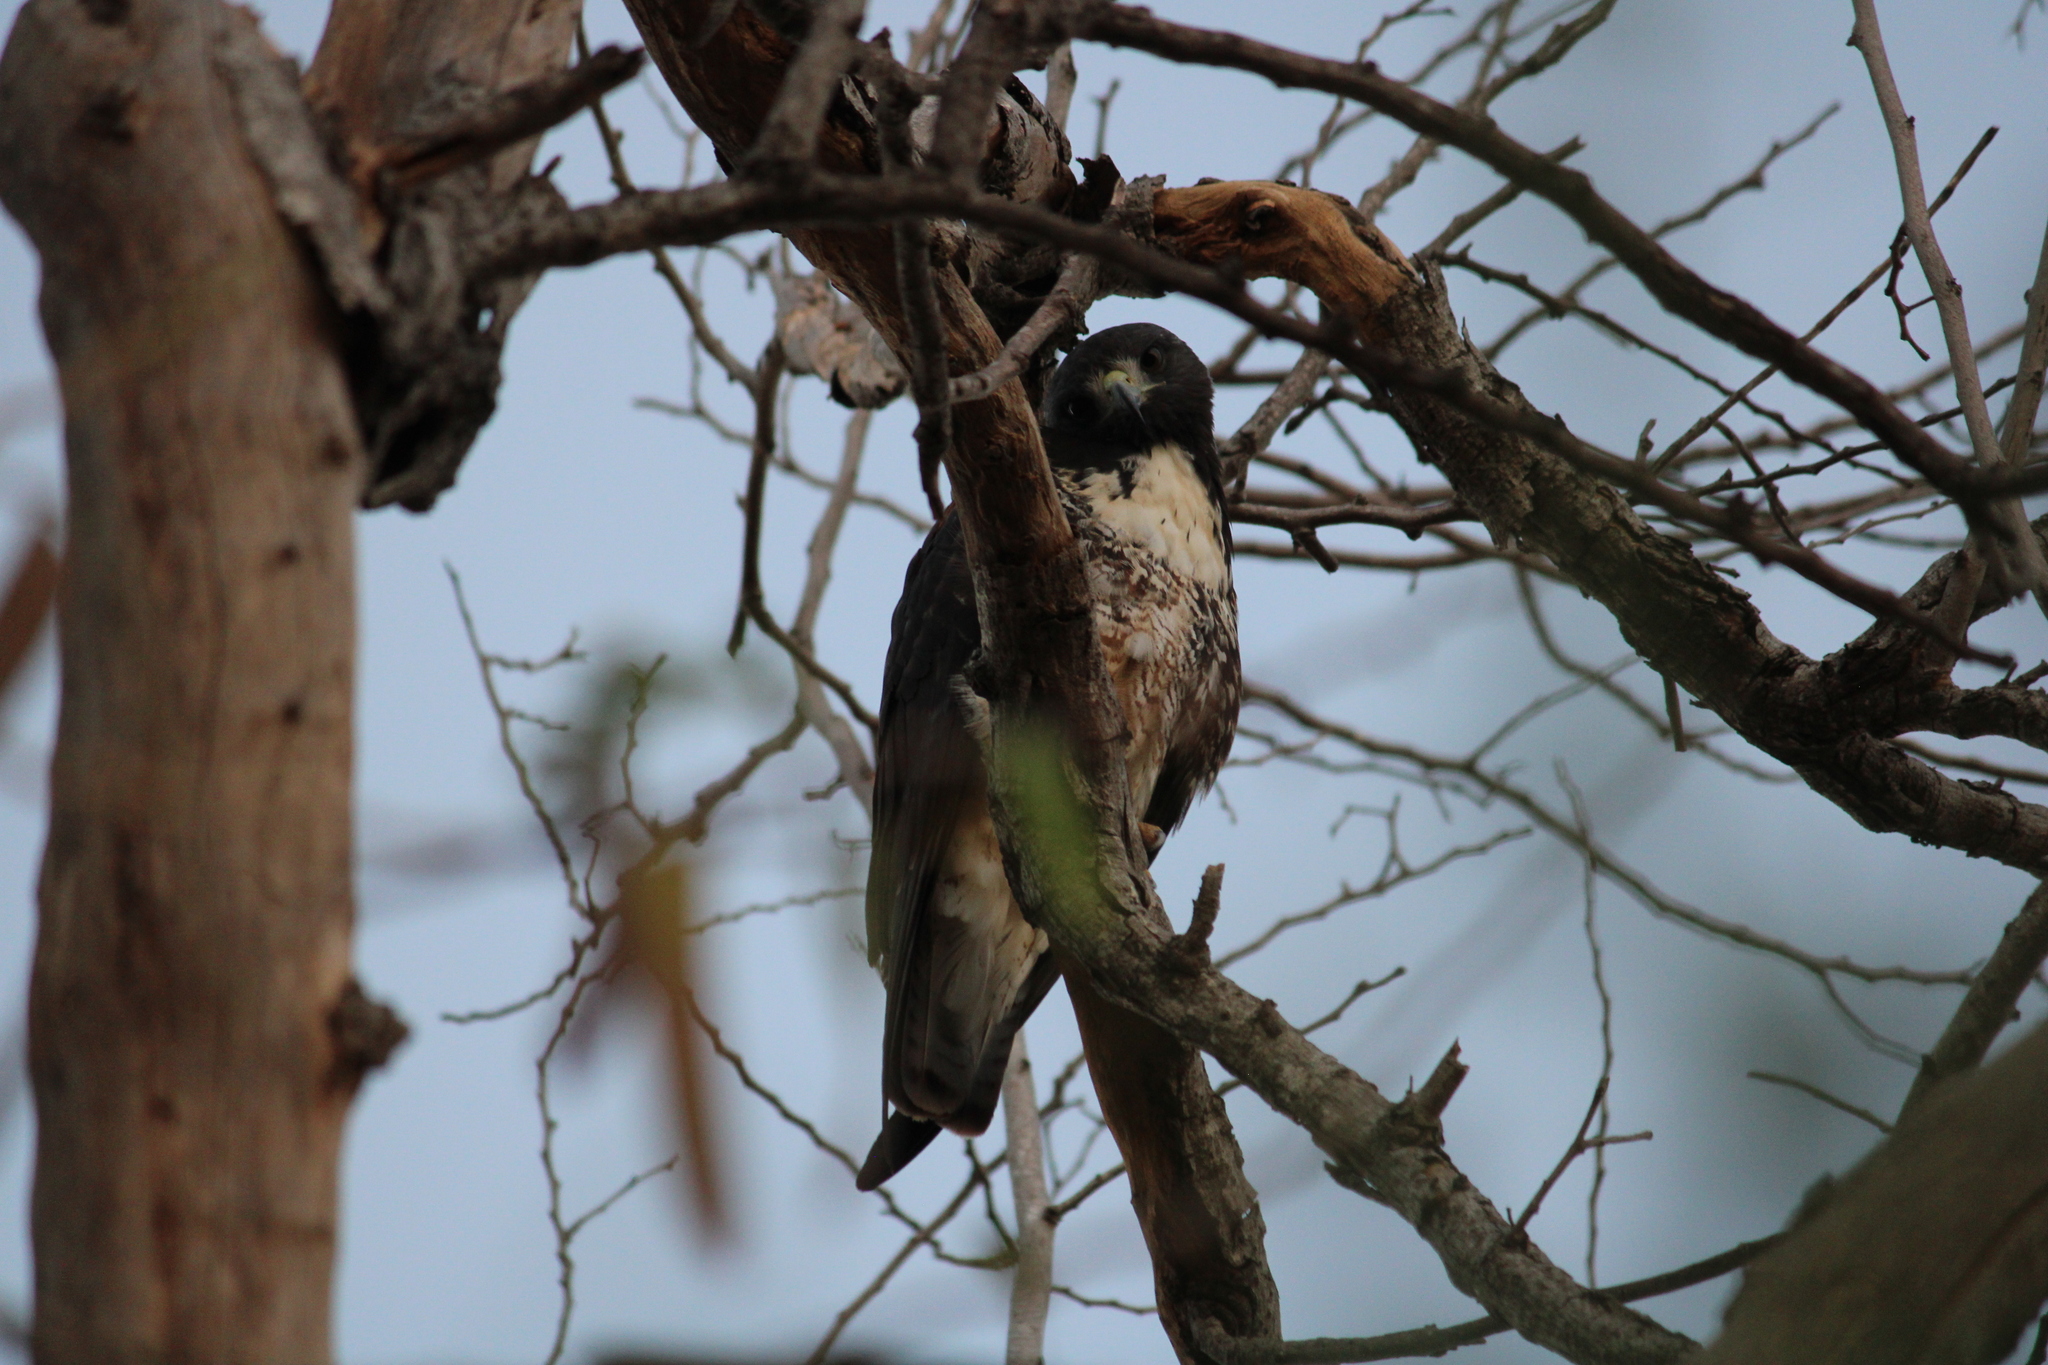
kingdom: Animalia
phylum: Chordata
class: Aves
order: Accipitriformes
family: Accipitridae
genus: Buteo
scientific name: Buteo albicaudatus
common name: White-tailed hawk
